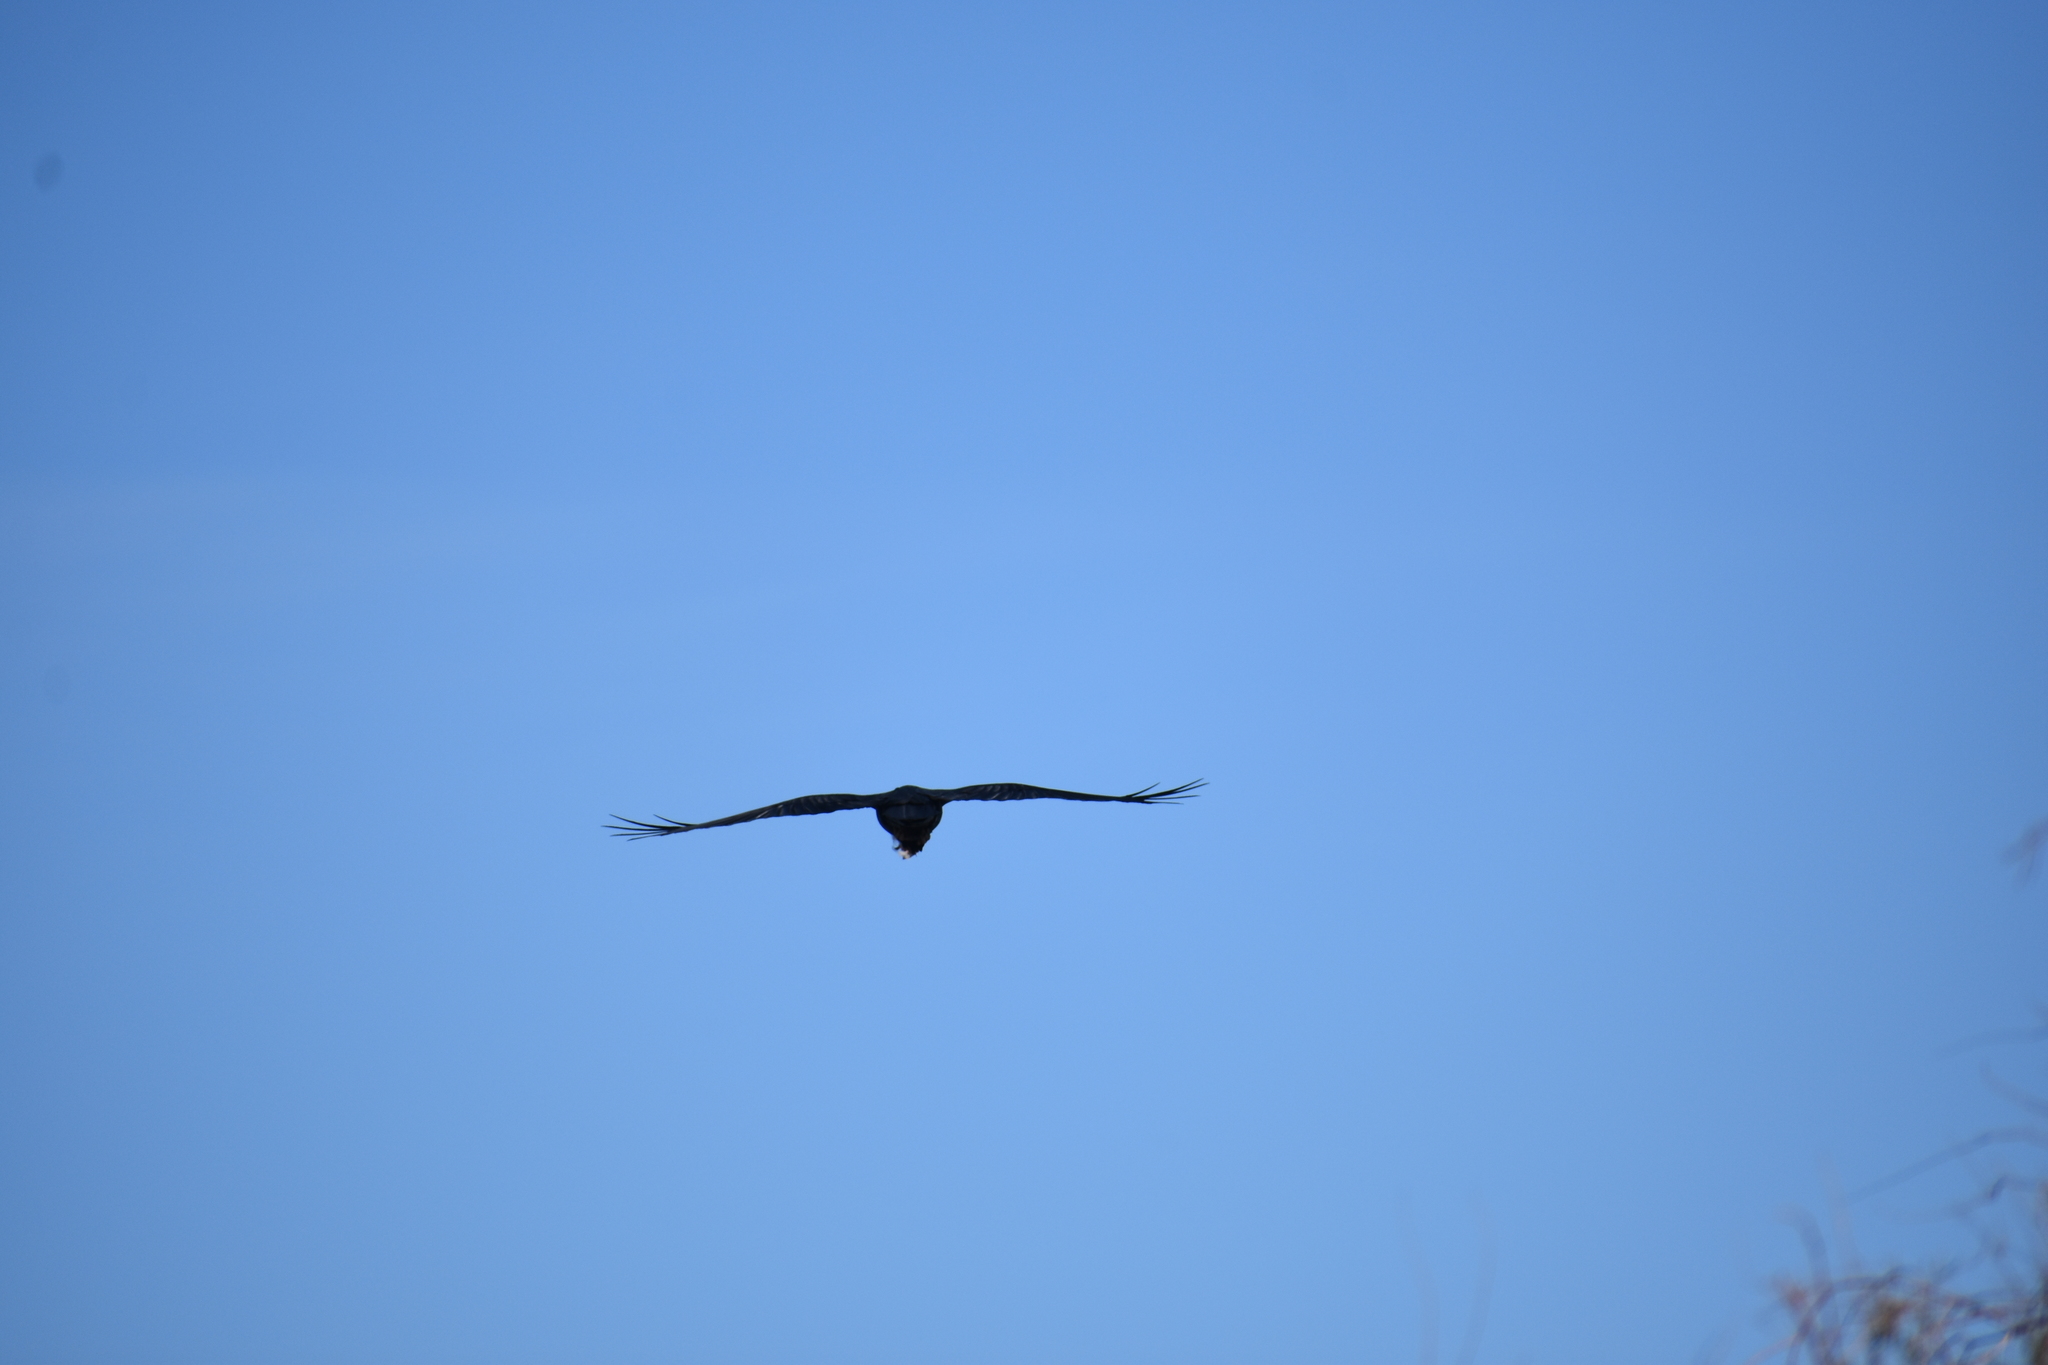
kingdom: Animalia
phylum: Chordata
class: Aves
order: Passeriformes
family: Corvidae
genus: Corvus
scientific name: Corvus corax
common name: Common raven
